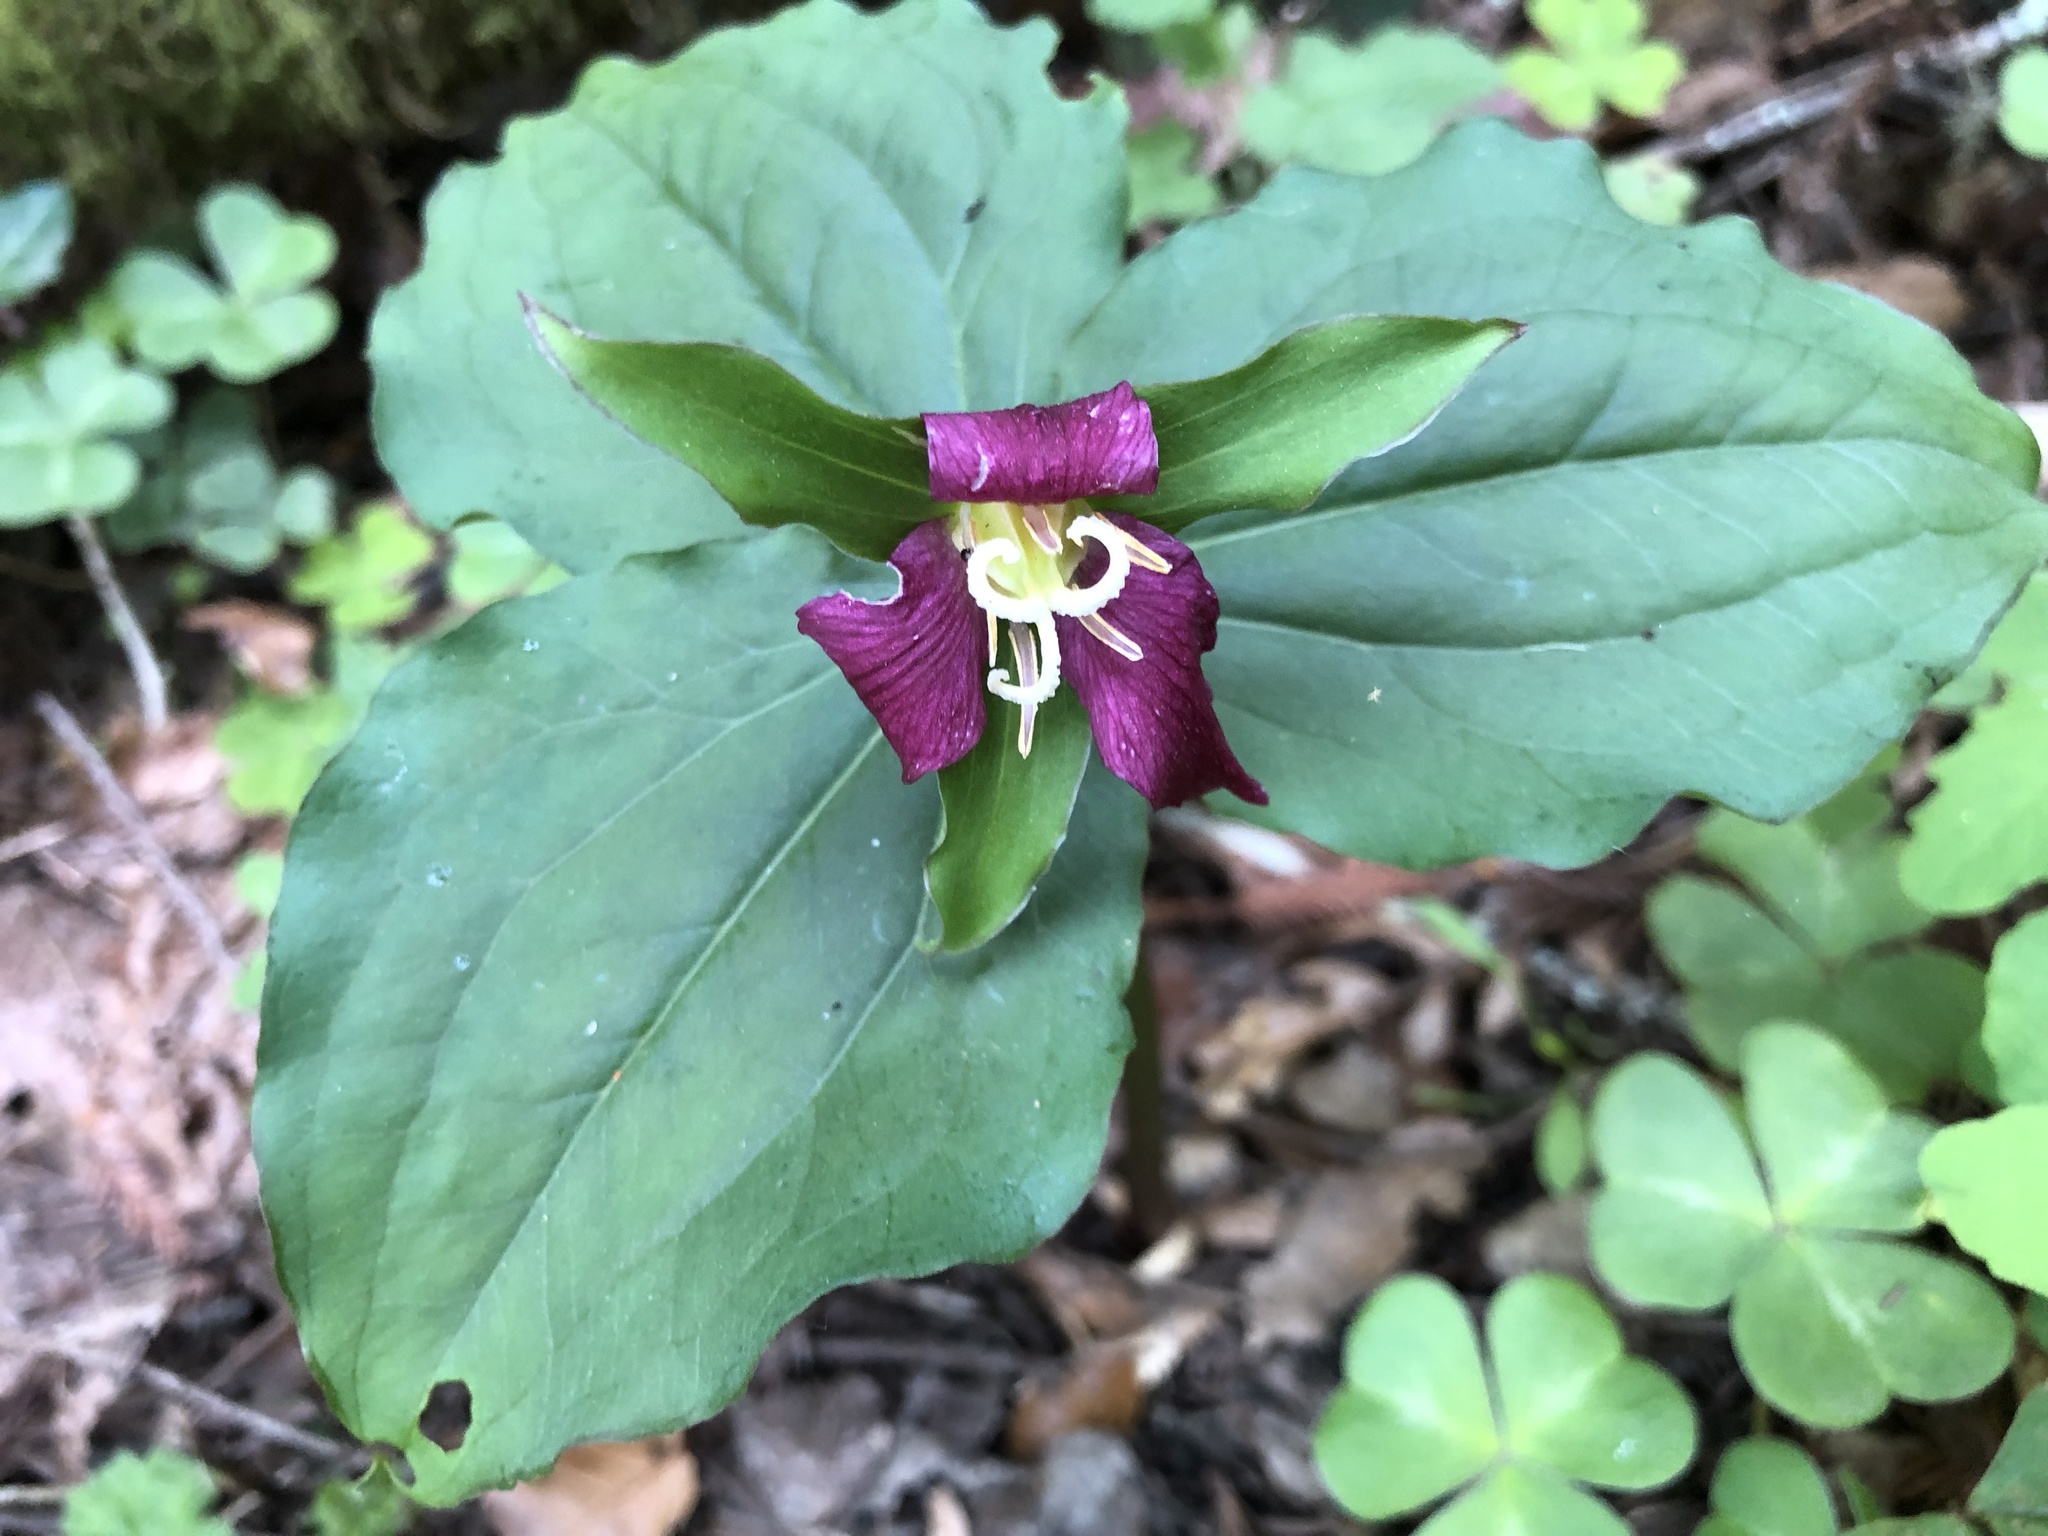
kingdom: Plantae
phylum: Tracheophyta
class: Liliopsida
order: Liliales
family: Melanthiaceae
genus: Trillium
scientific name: Trillium ovatum
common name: Pacific trillium
